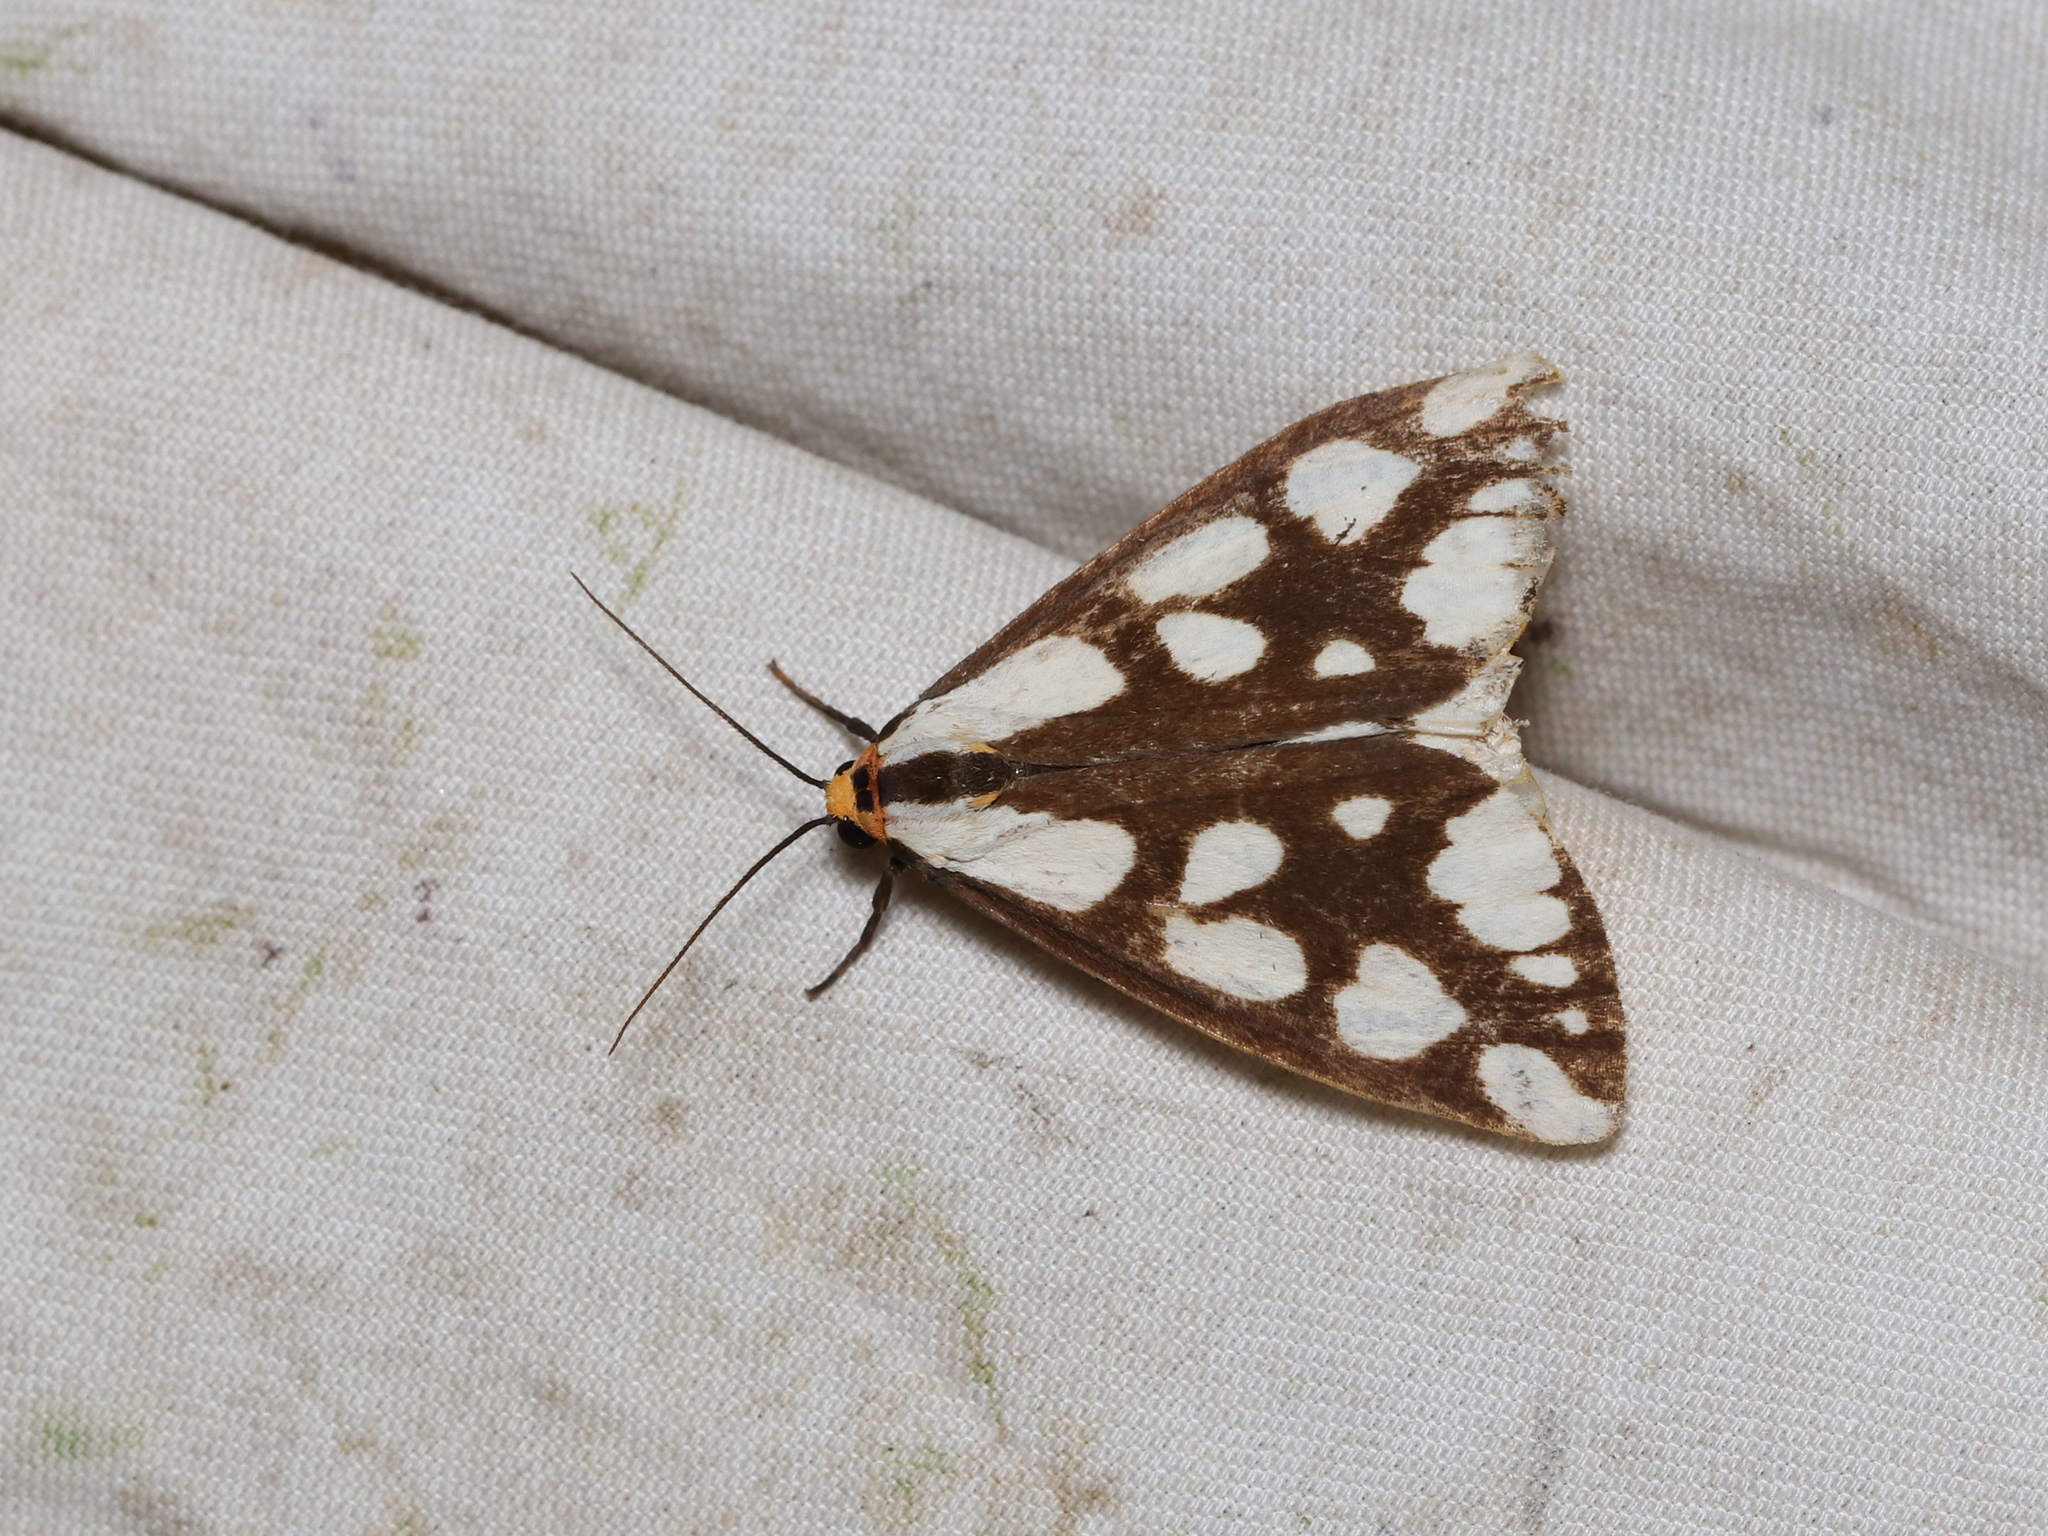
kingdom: Animalia
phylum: Arthropoda
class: Insecta
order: Lepidoptera
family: Erebidae
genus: Haploa
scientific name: Haploa confusa
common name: Confused haploa moth
